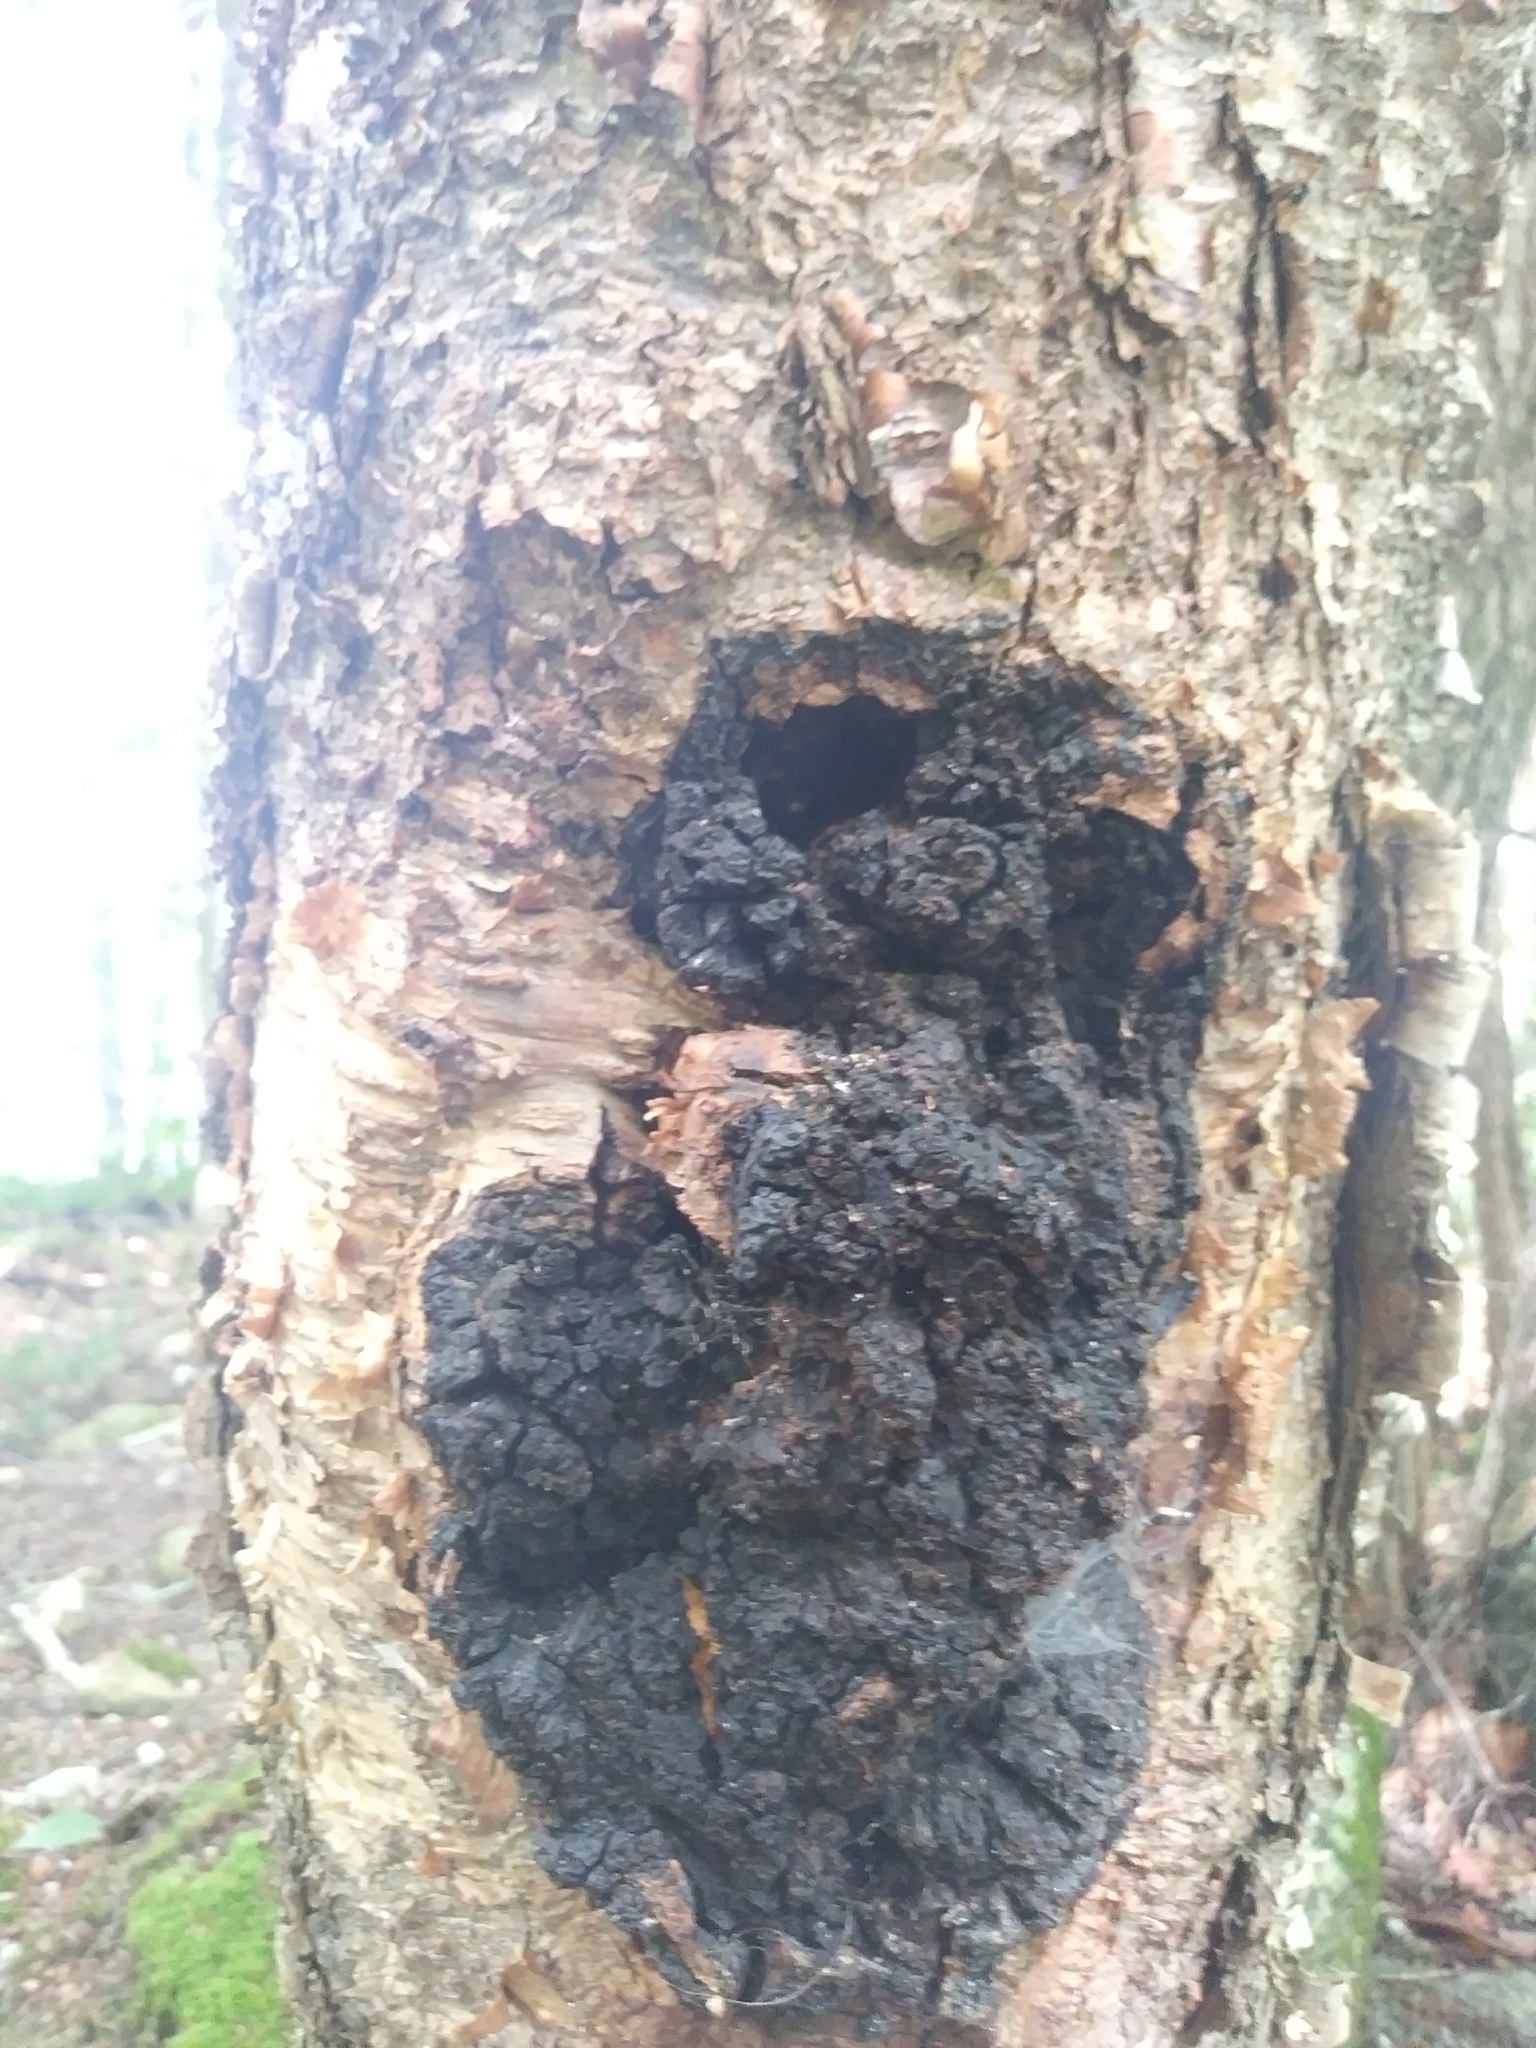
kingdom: Fungi
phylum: Basidiomycota
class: Agaricomycetes
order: Hymenochaetales
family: Hymenochaetaceae
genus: Inonotus
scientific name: Inonotus obliquus
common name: Chaga
